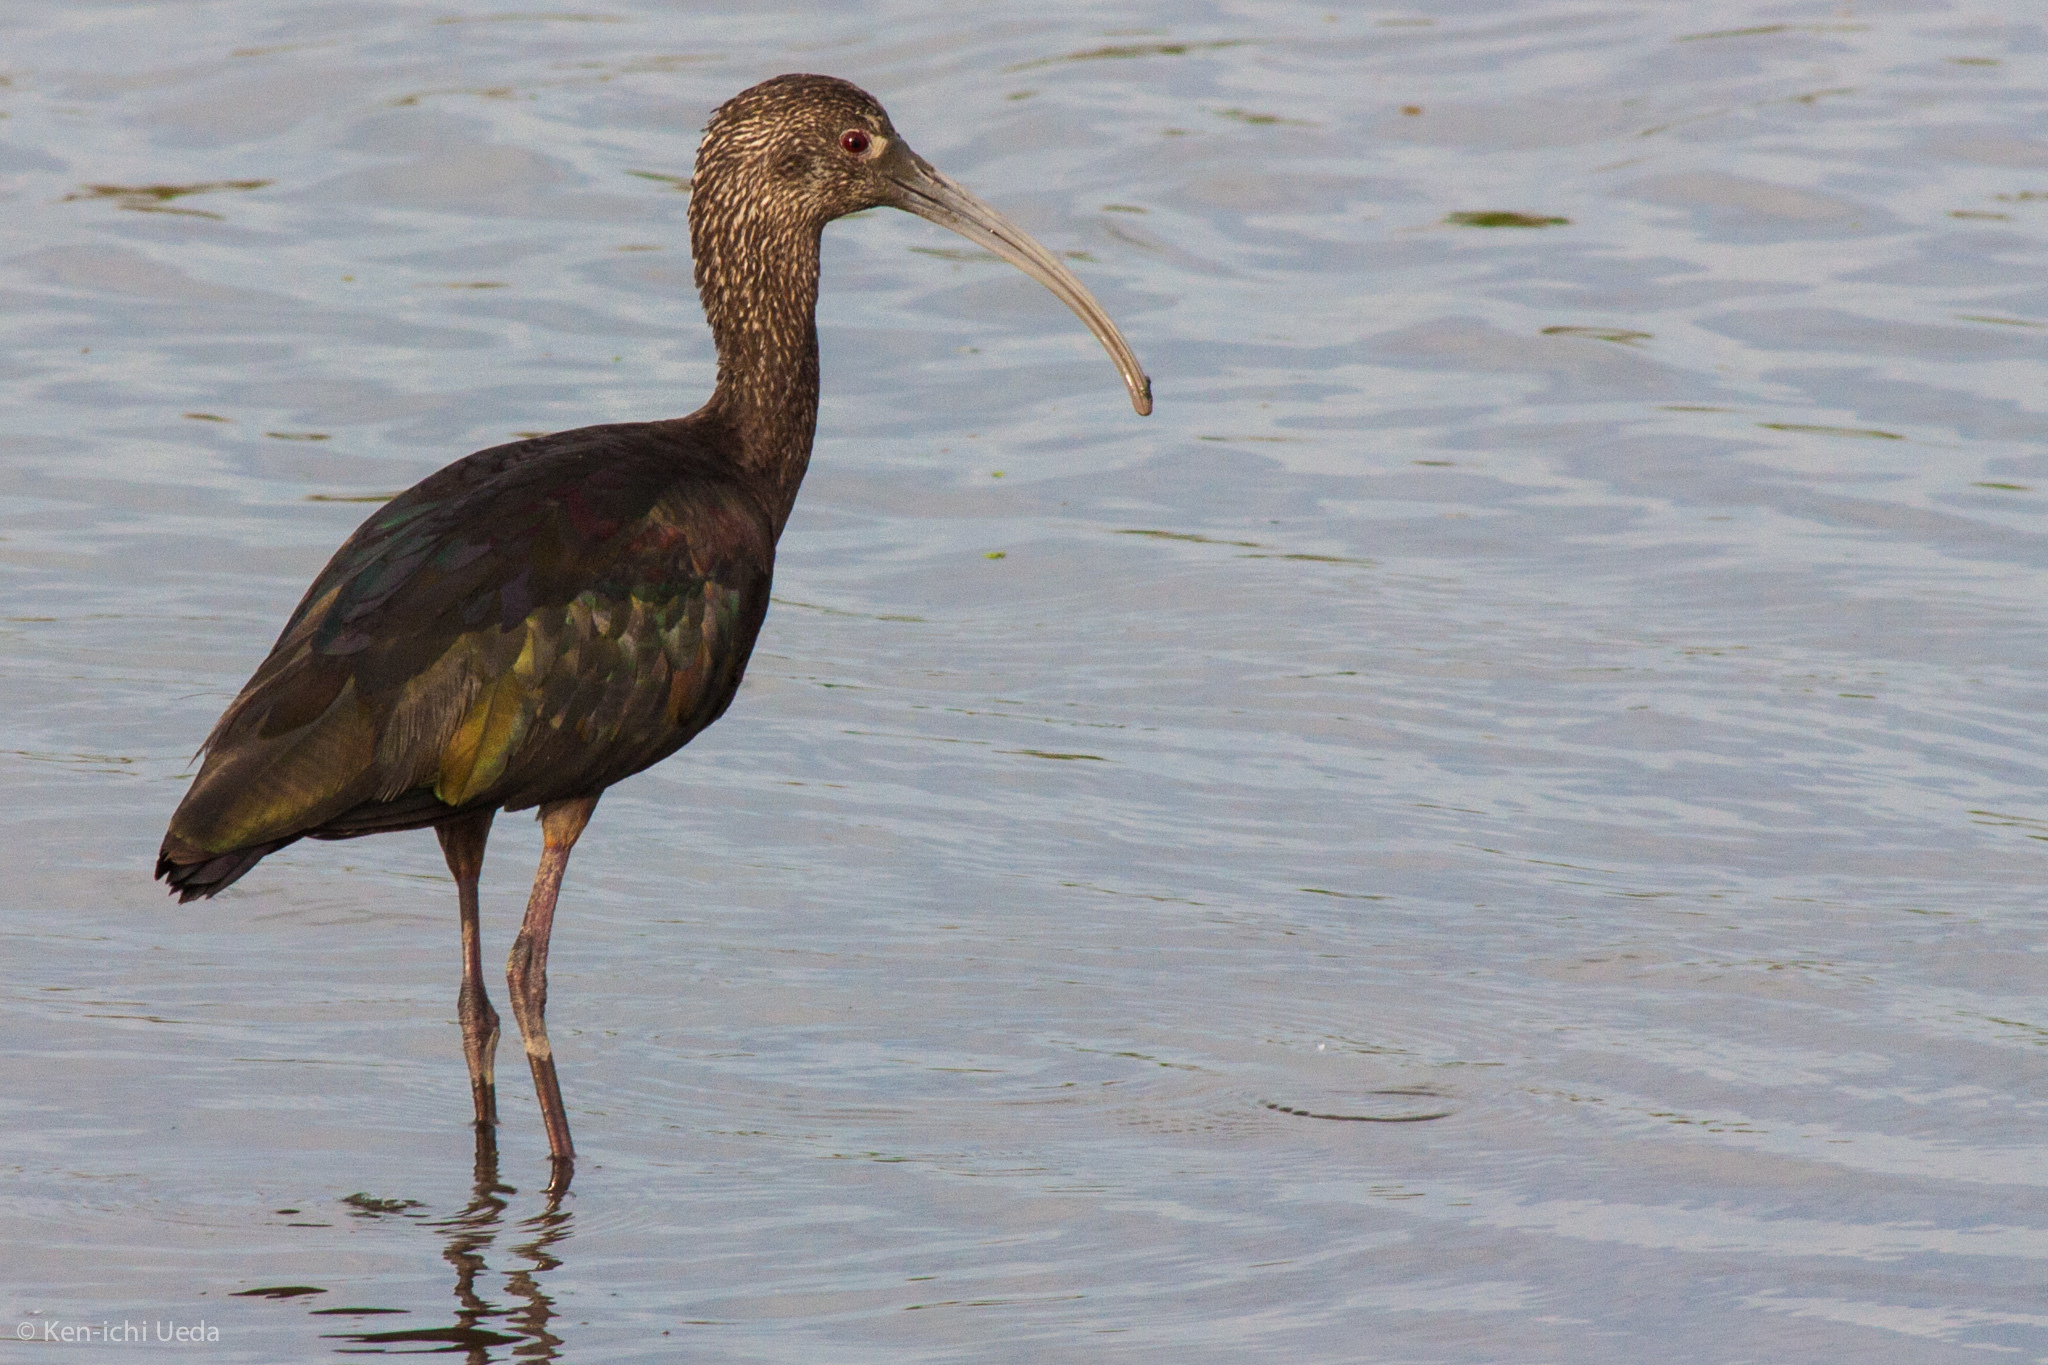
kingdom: Animalia
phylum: Chordata
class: Aves
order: Pelecaniformes
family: Threskiornithidae
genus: Plegadis
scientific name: Plegadis chihi
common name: White-faced ibis
